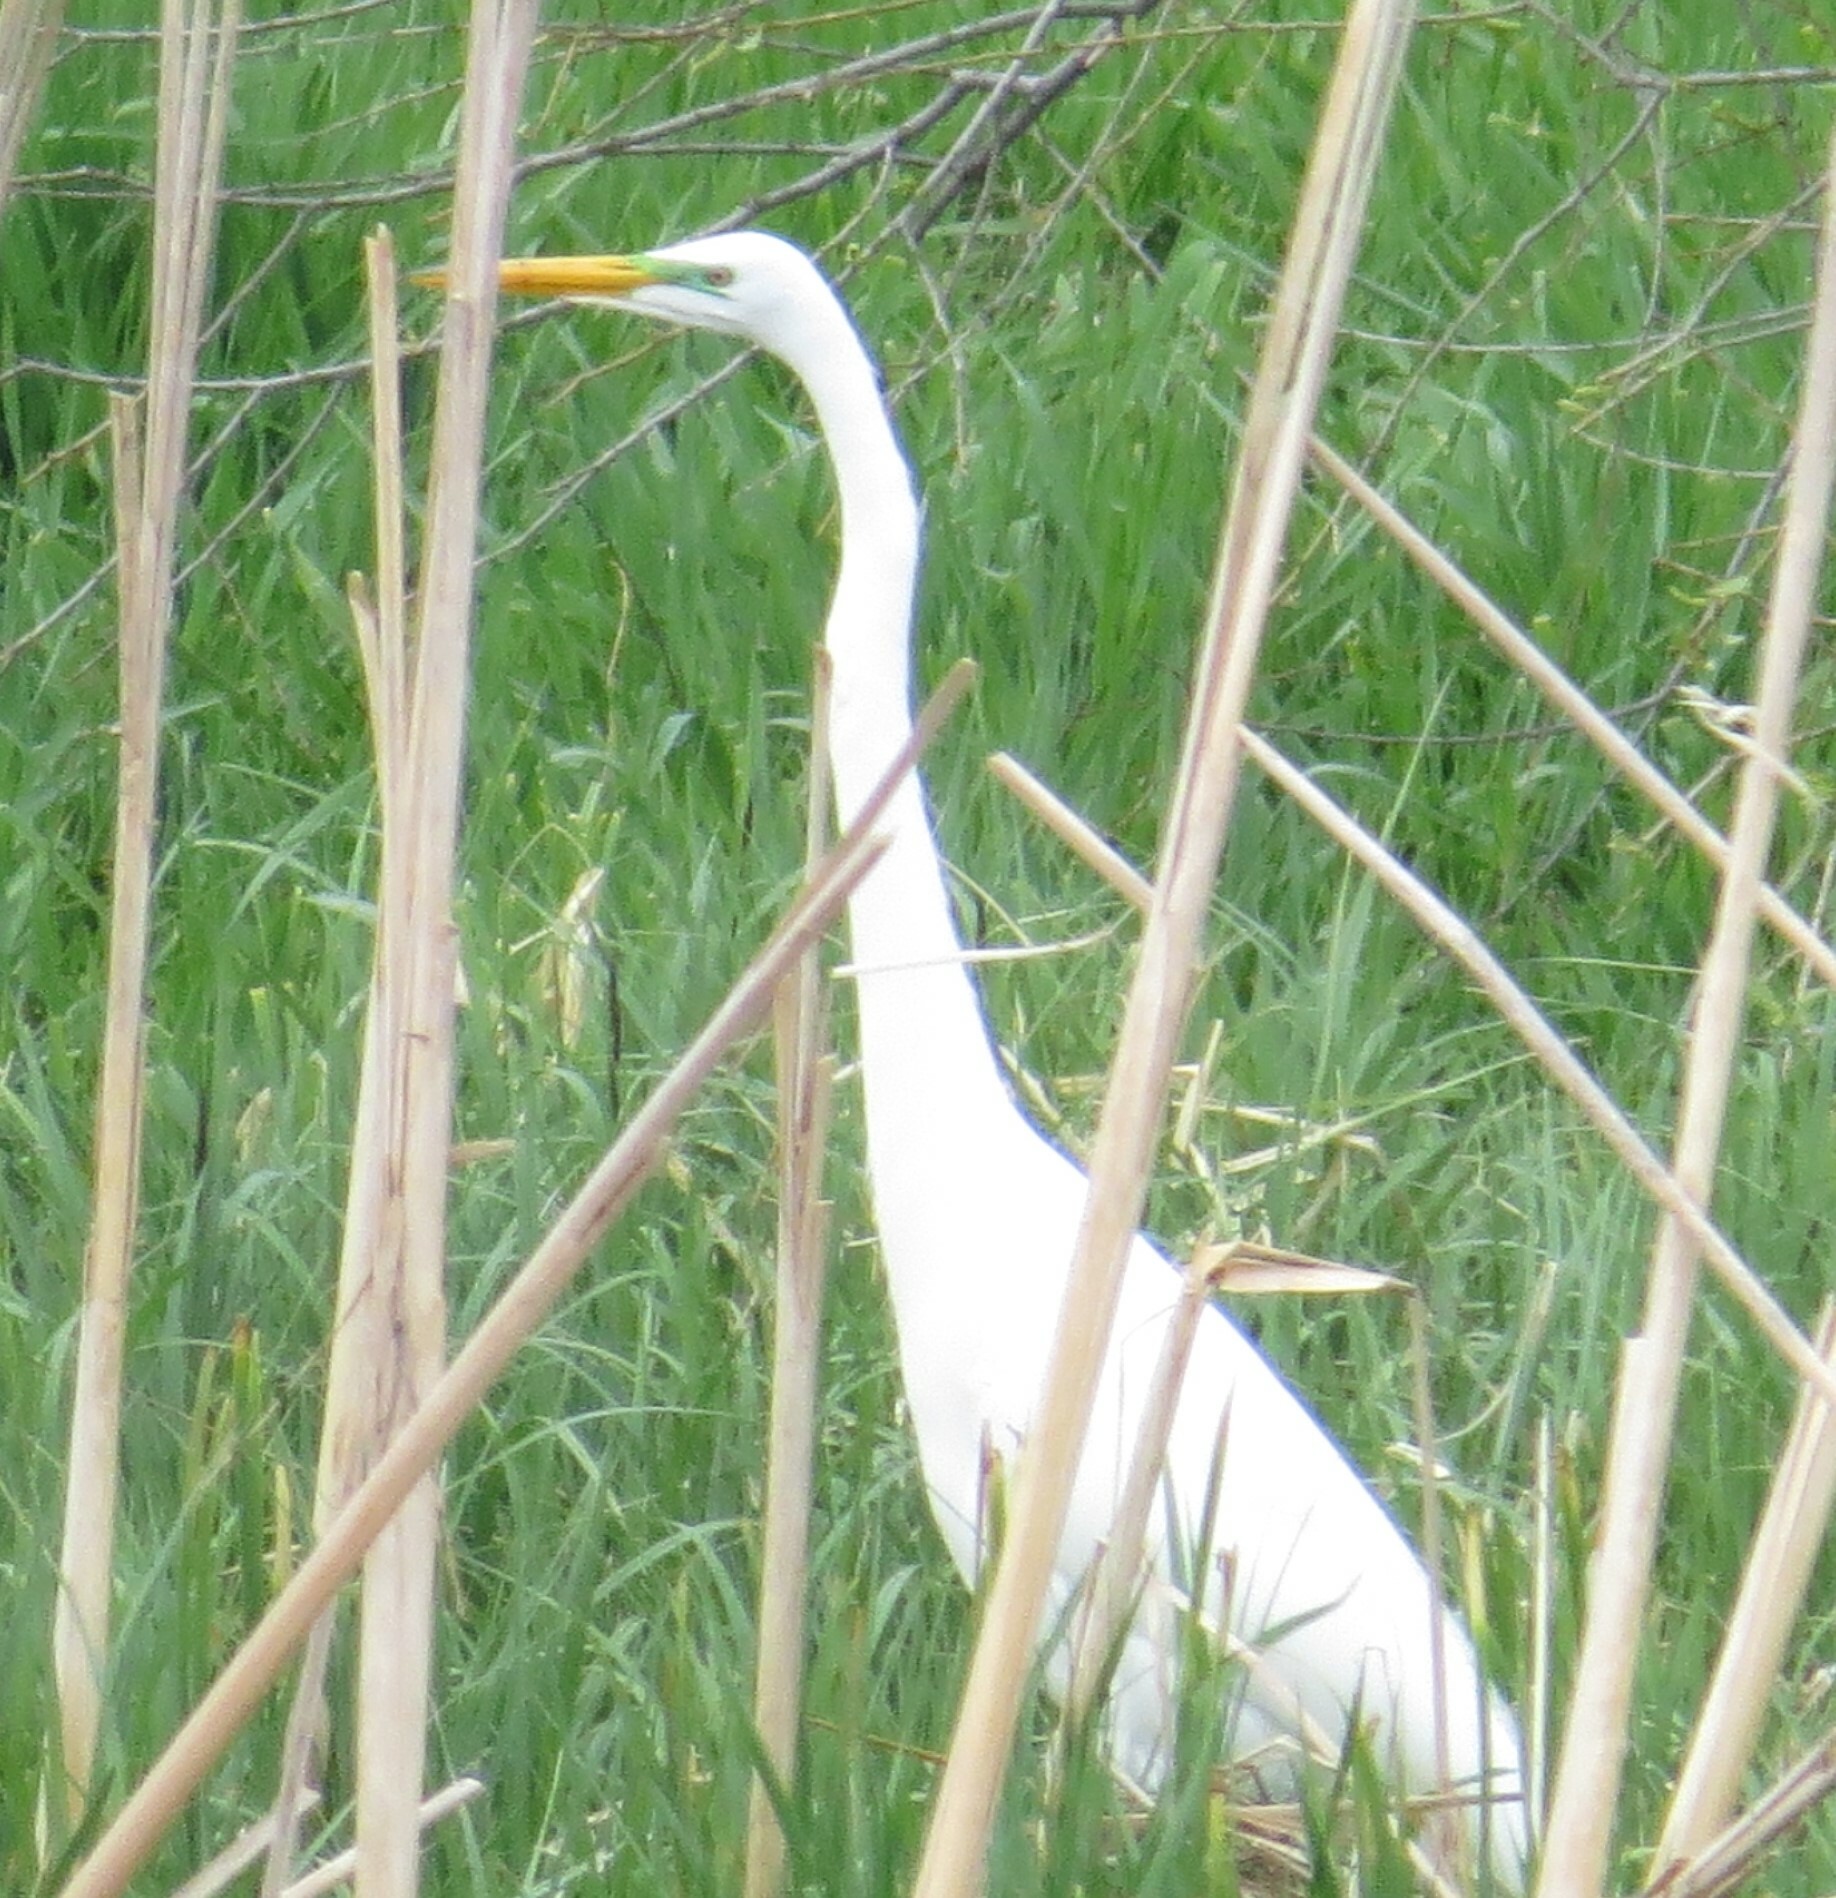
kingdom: Animalia
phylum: Chordata
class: Aves
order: Pelecaniformes
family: Ardeidae
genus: Ardea
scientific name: Ardea alba
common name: Great egret
